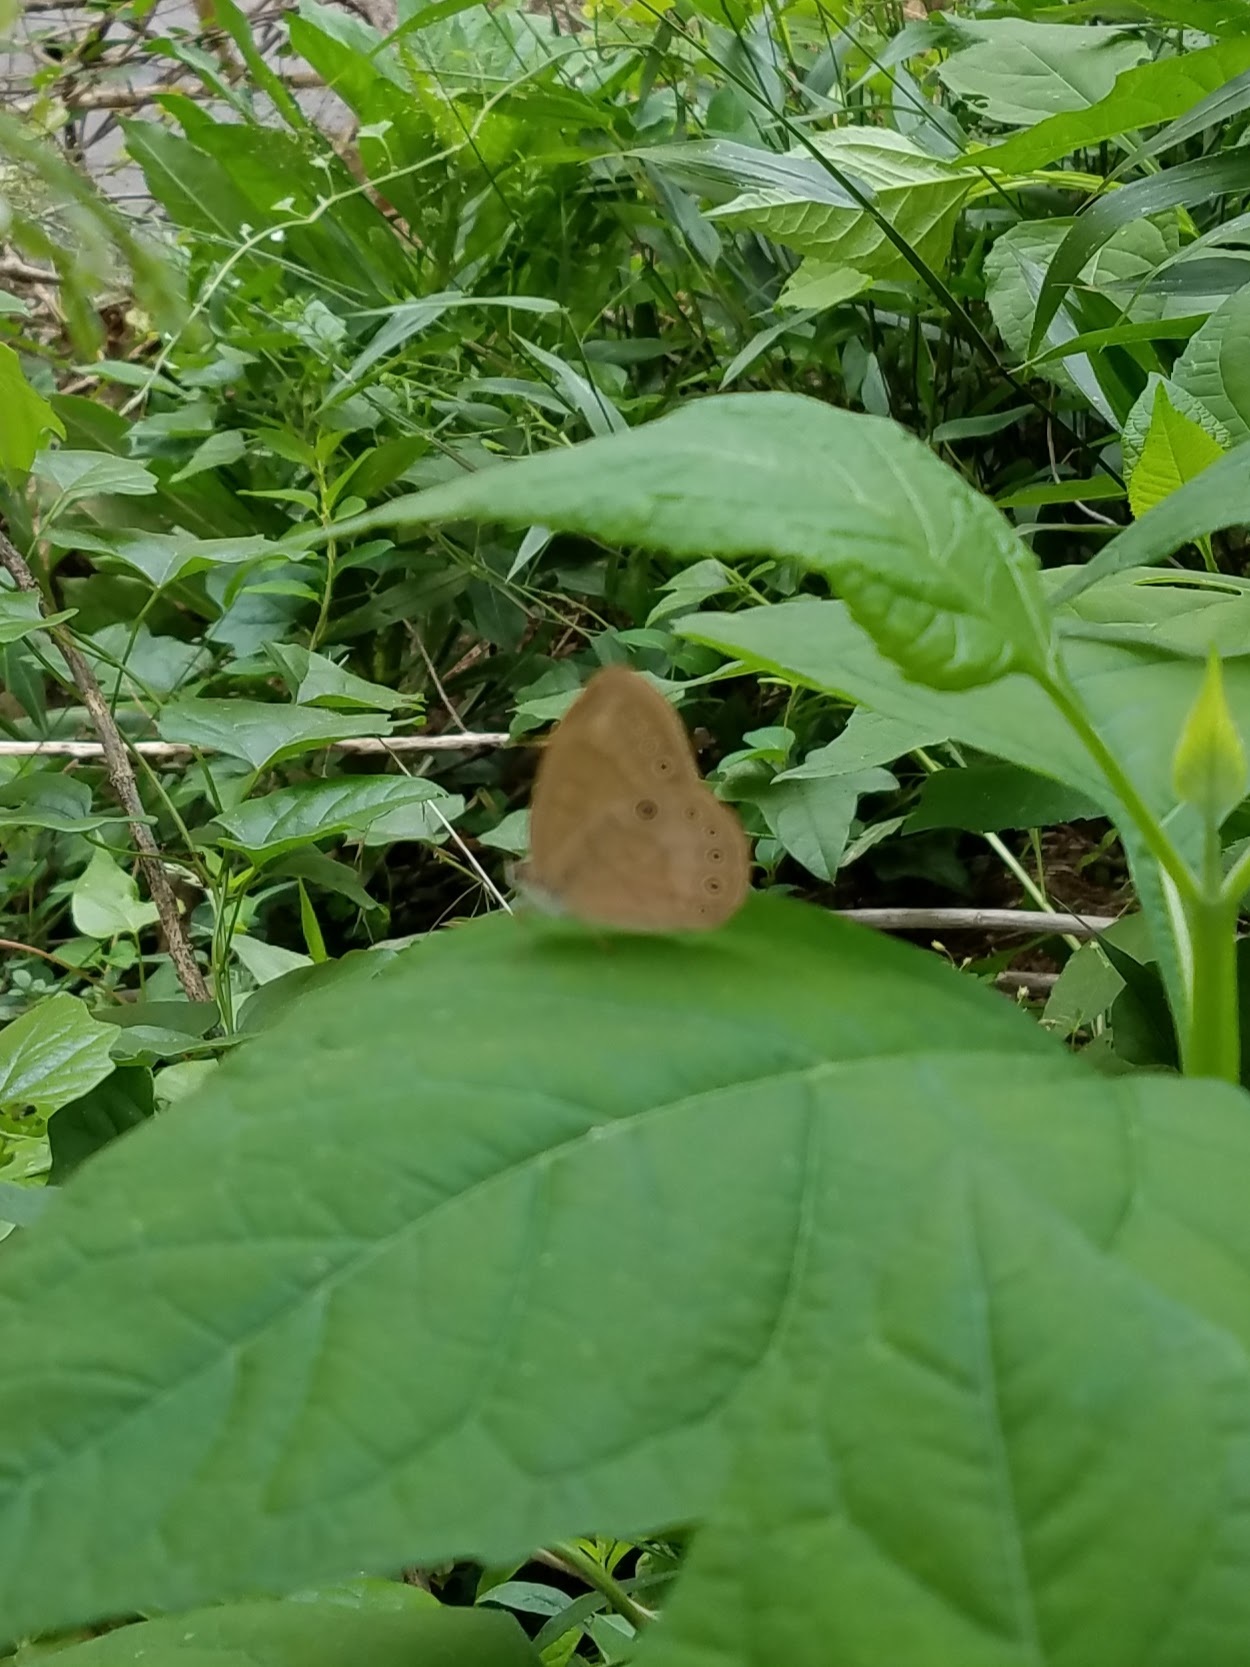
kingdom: Animalia
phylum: Arthropoda
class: Insecta
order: Lepidoptera
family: Nymphalidae
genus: Lethe
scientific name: Lethe eurydice
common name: Eyed brown
